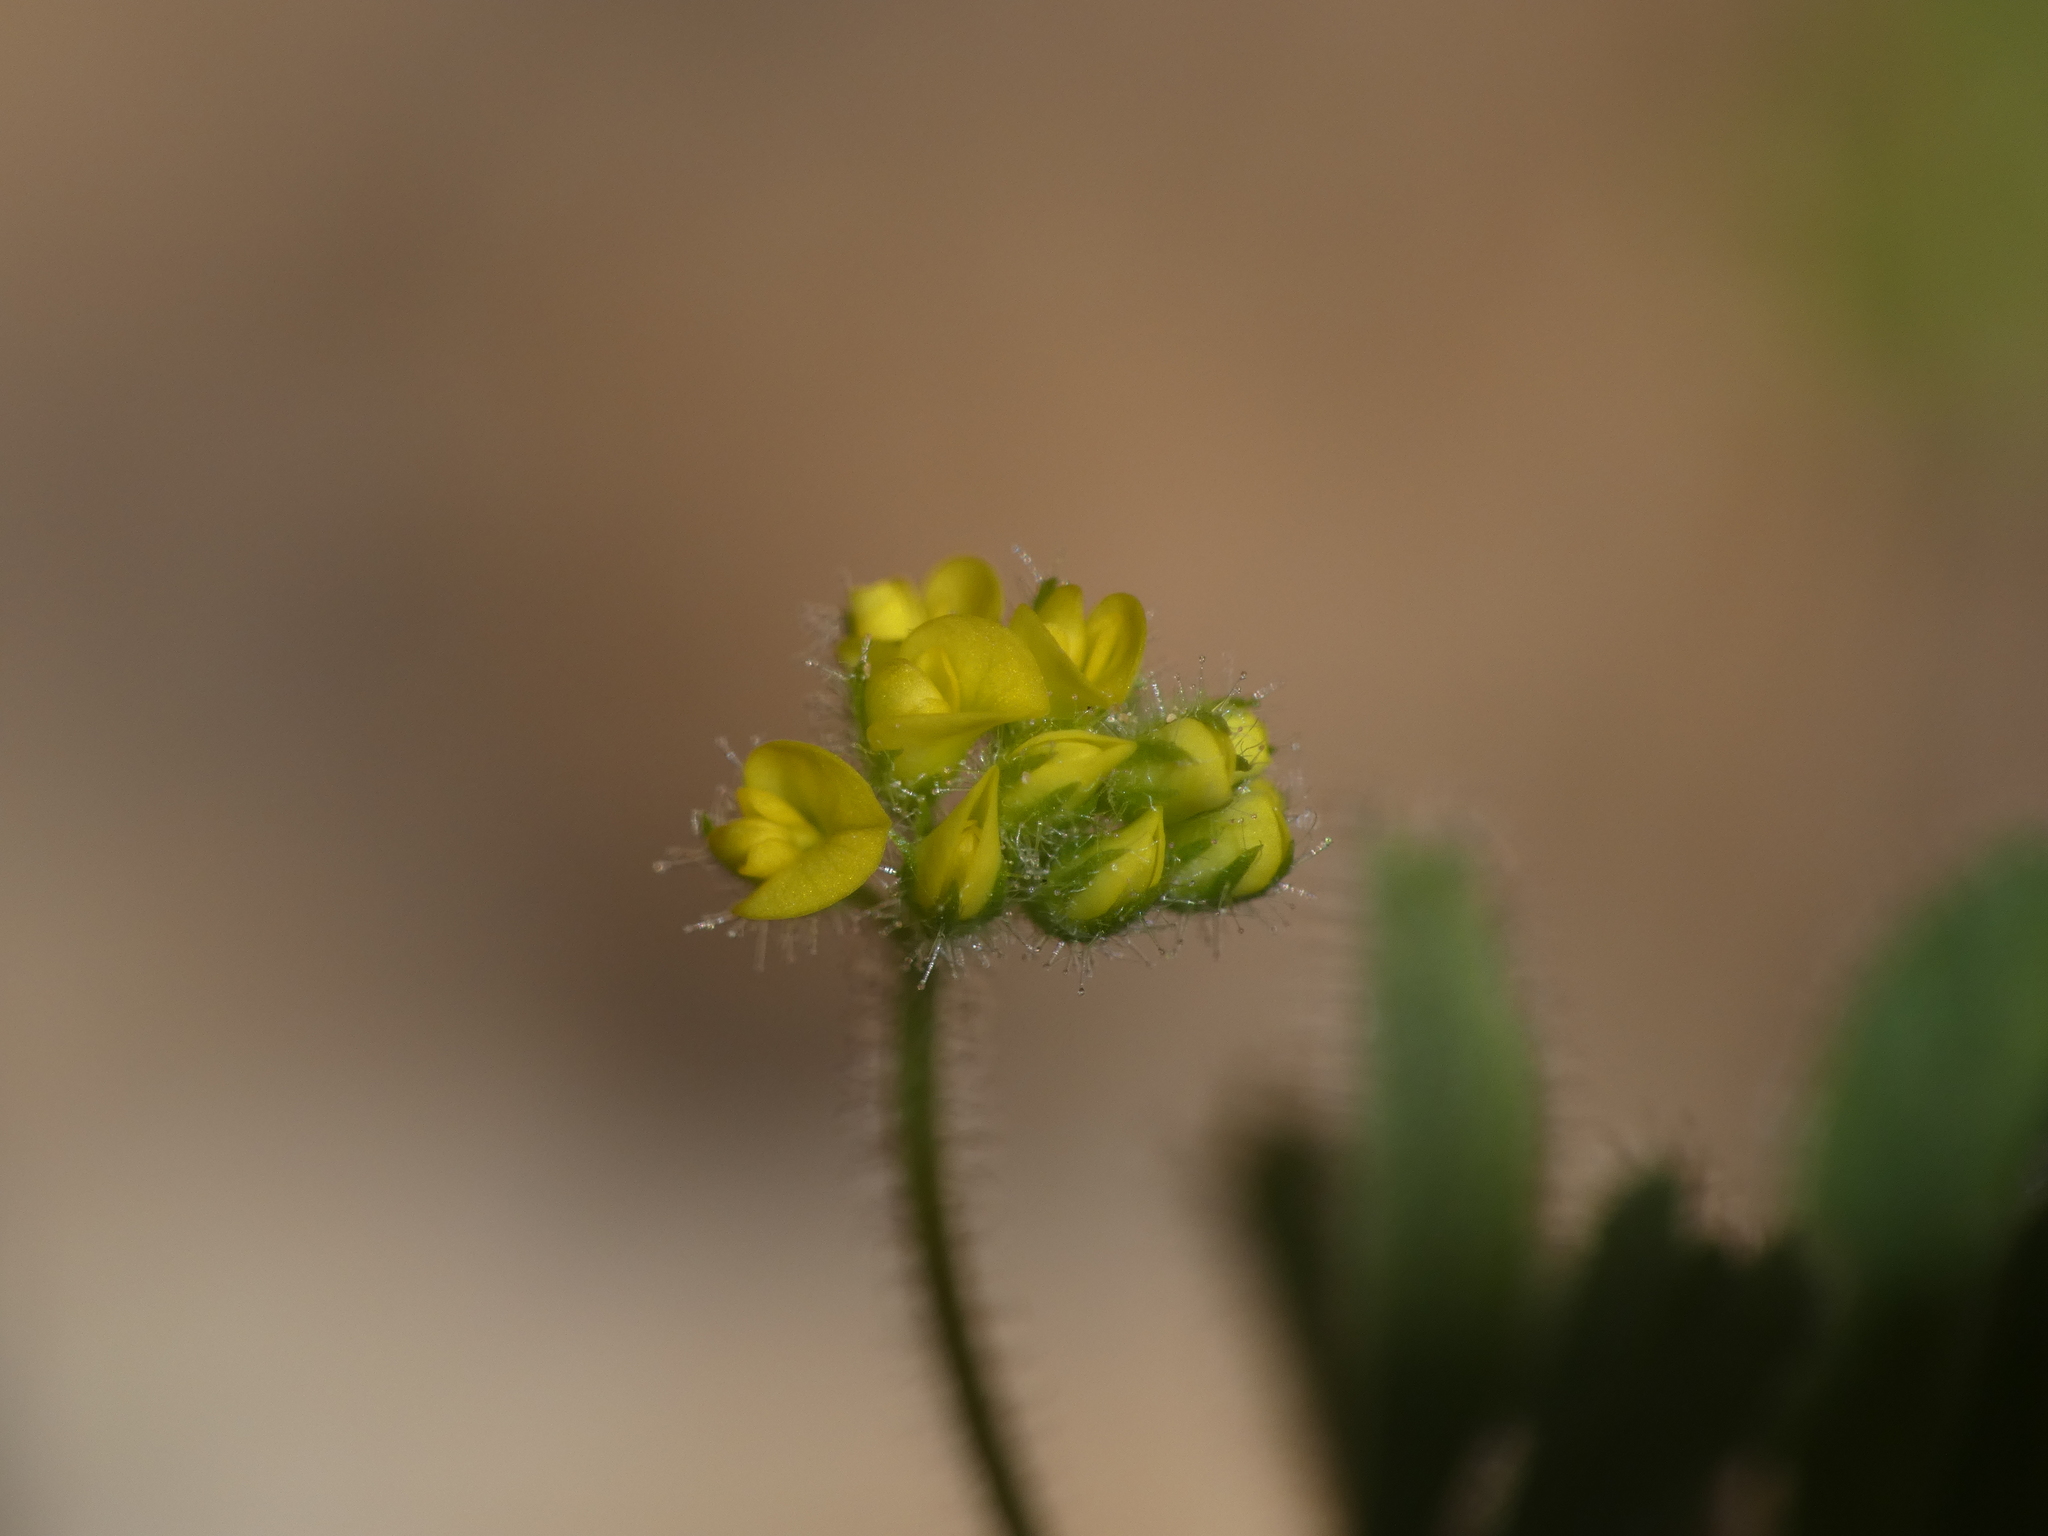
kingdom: Plantae
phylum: Tracheophyta
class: Magnoliopsida
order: Fabales
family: Fabaceae
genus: Medicago
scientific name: Medicago lupulina
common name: Black medick
